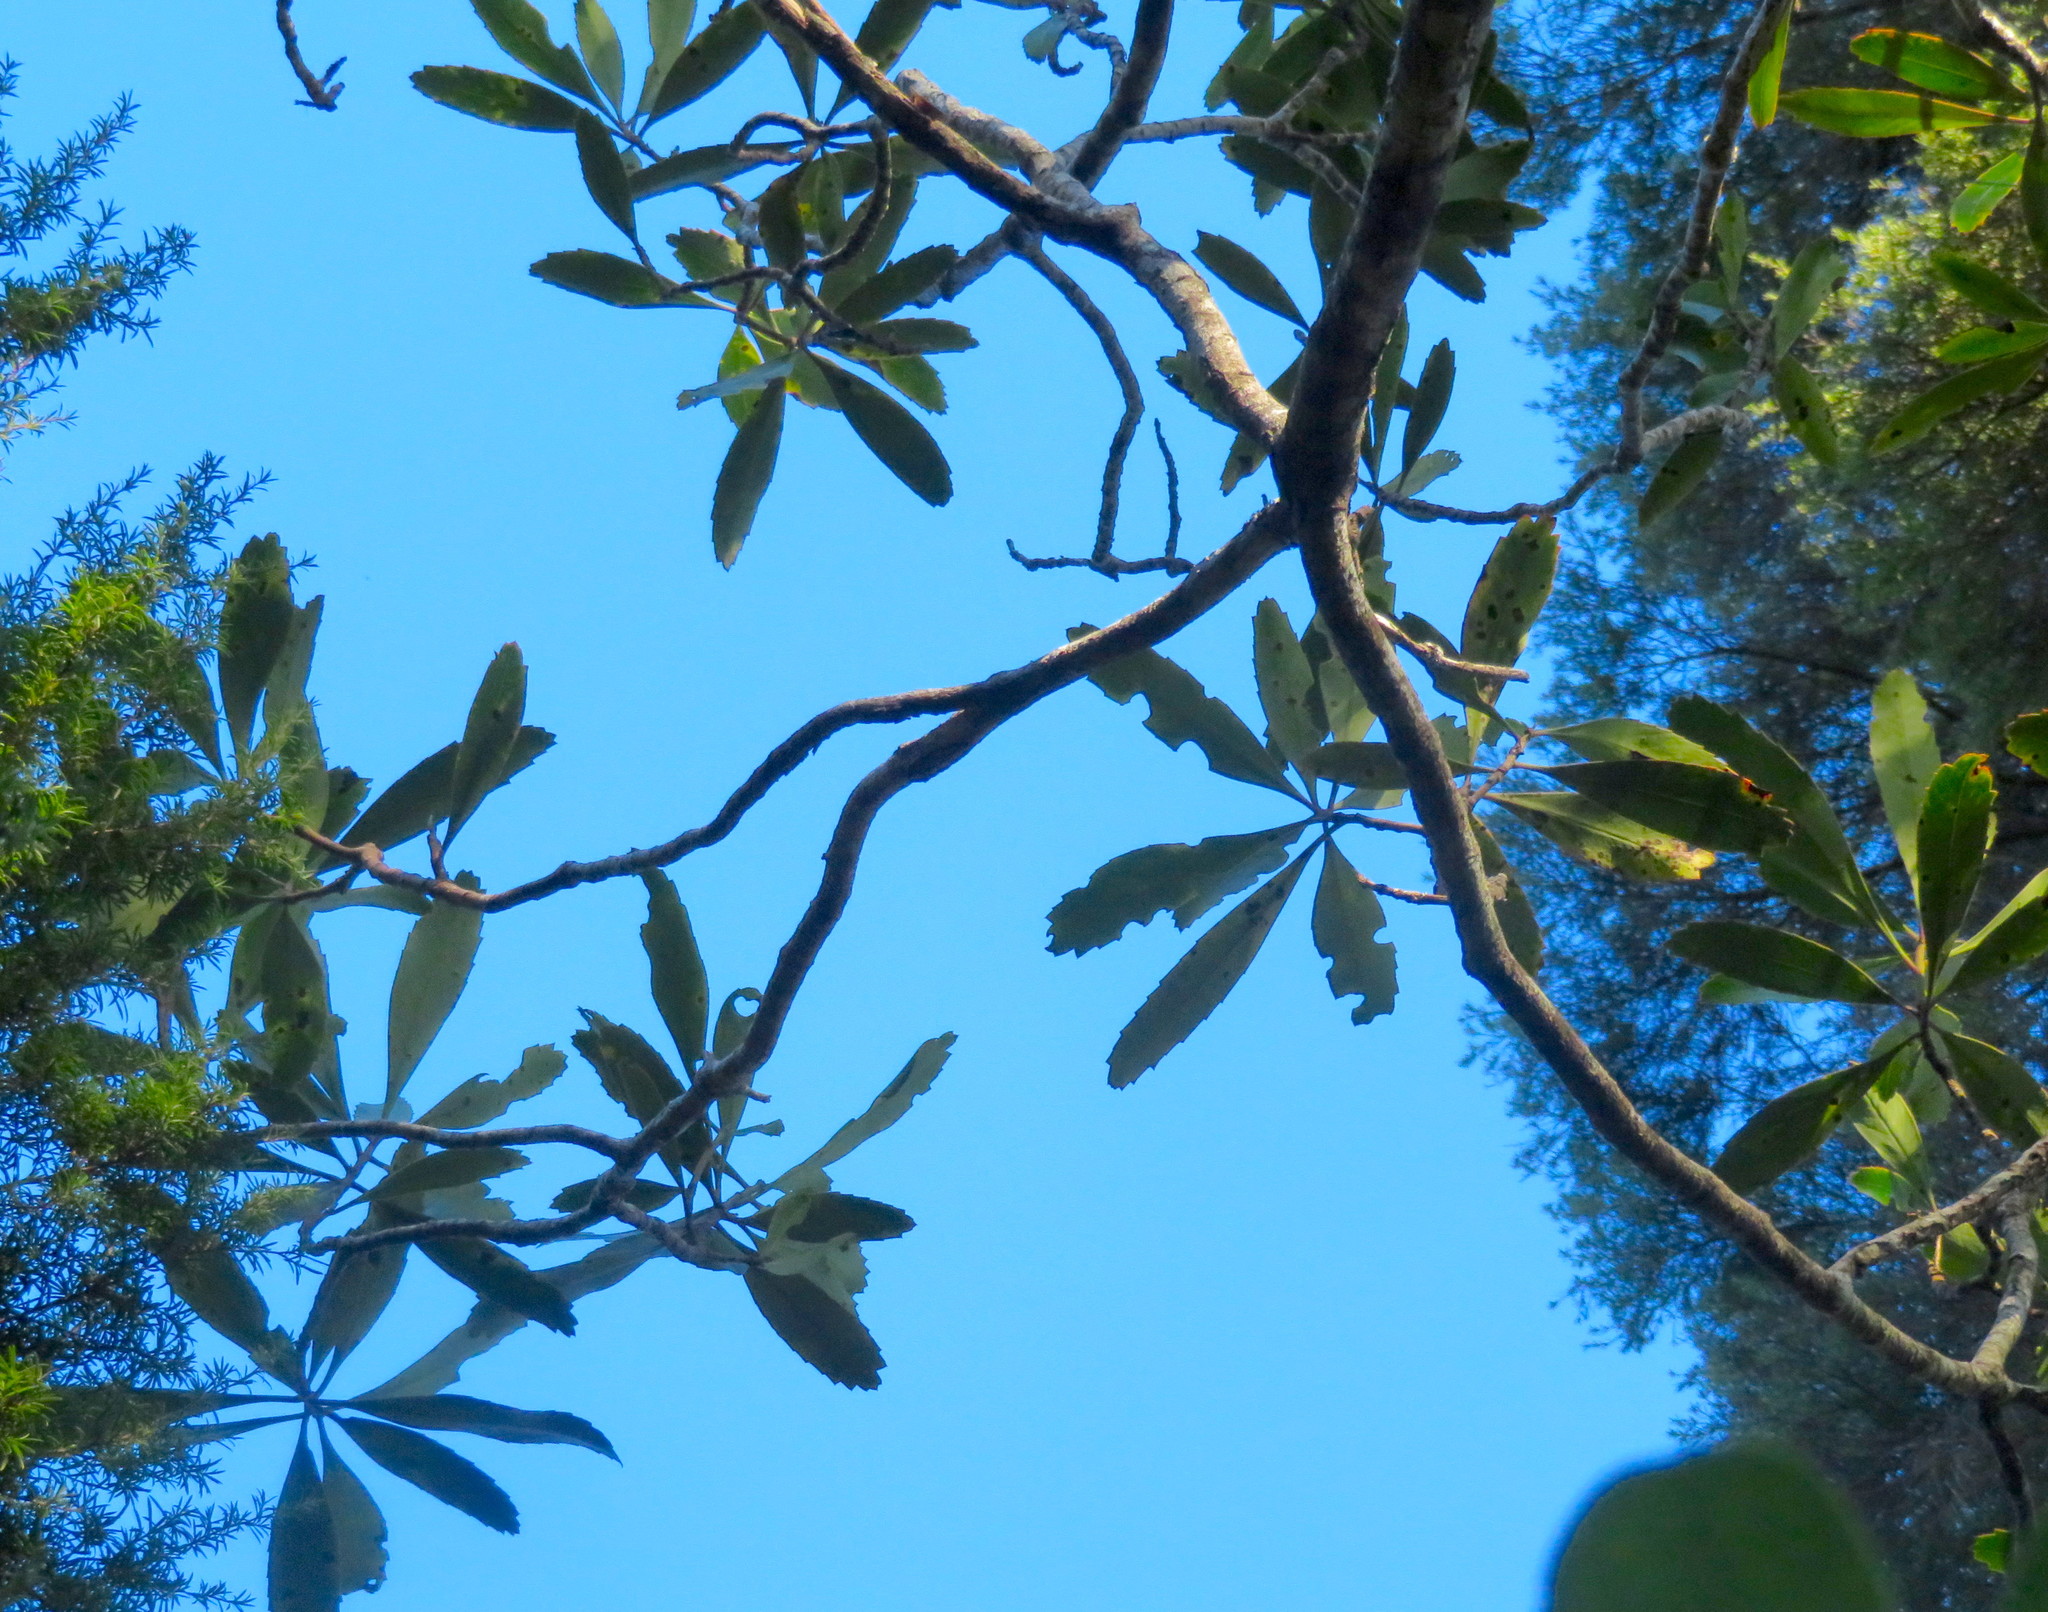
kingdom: Plantae
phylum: Tracheophyta
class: Magnoliopsida
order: Apiales
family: Araliaceae
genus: Pseudopanax
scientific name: Pseudopanax crassifolius
